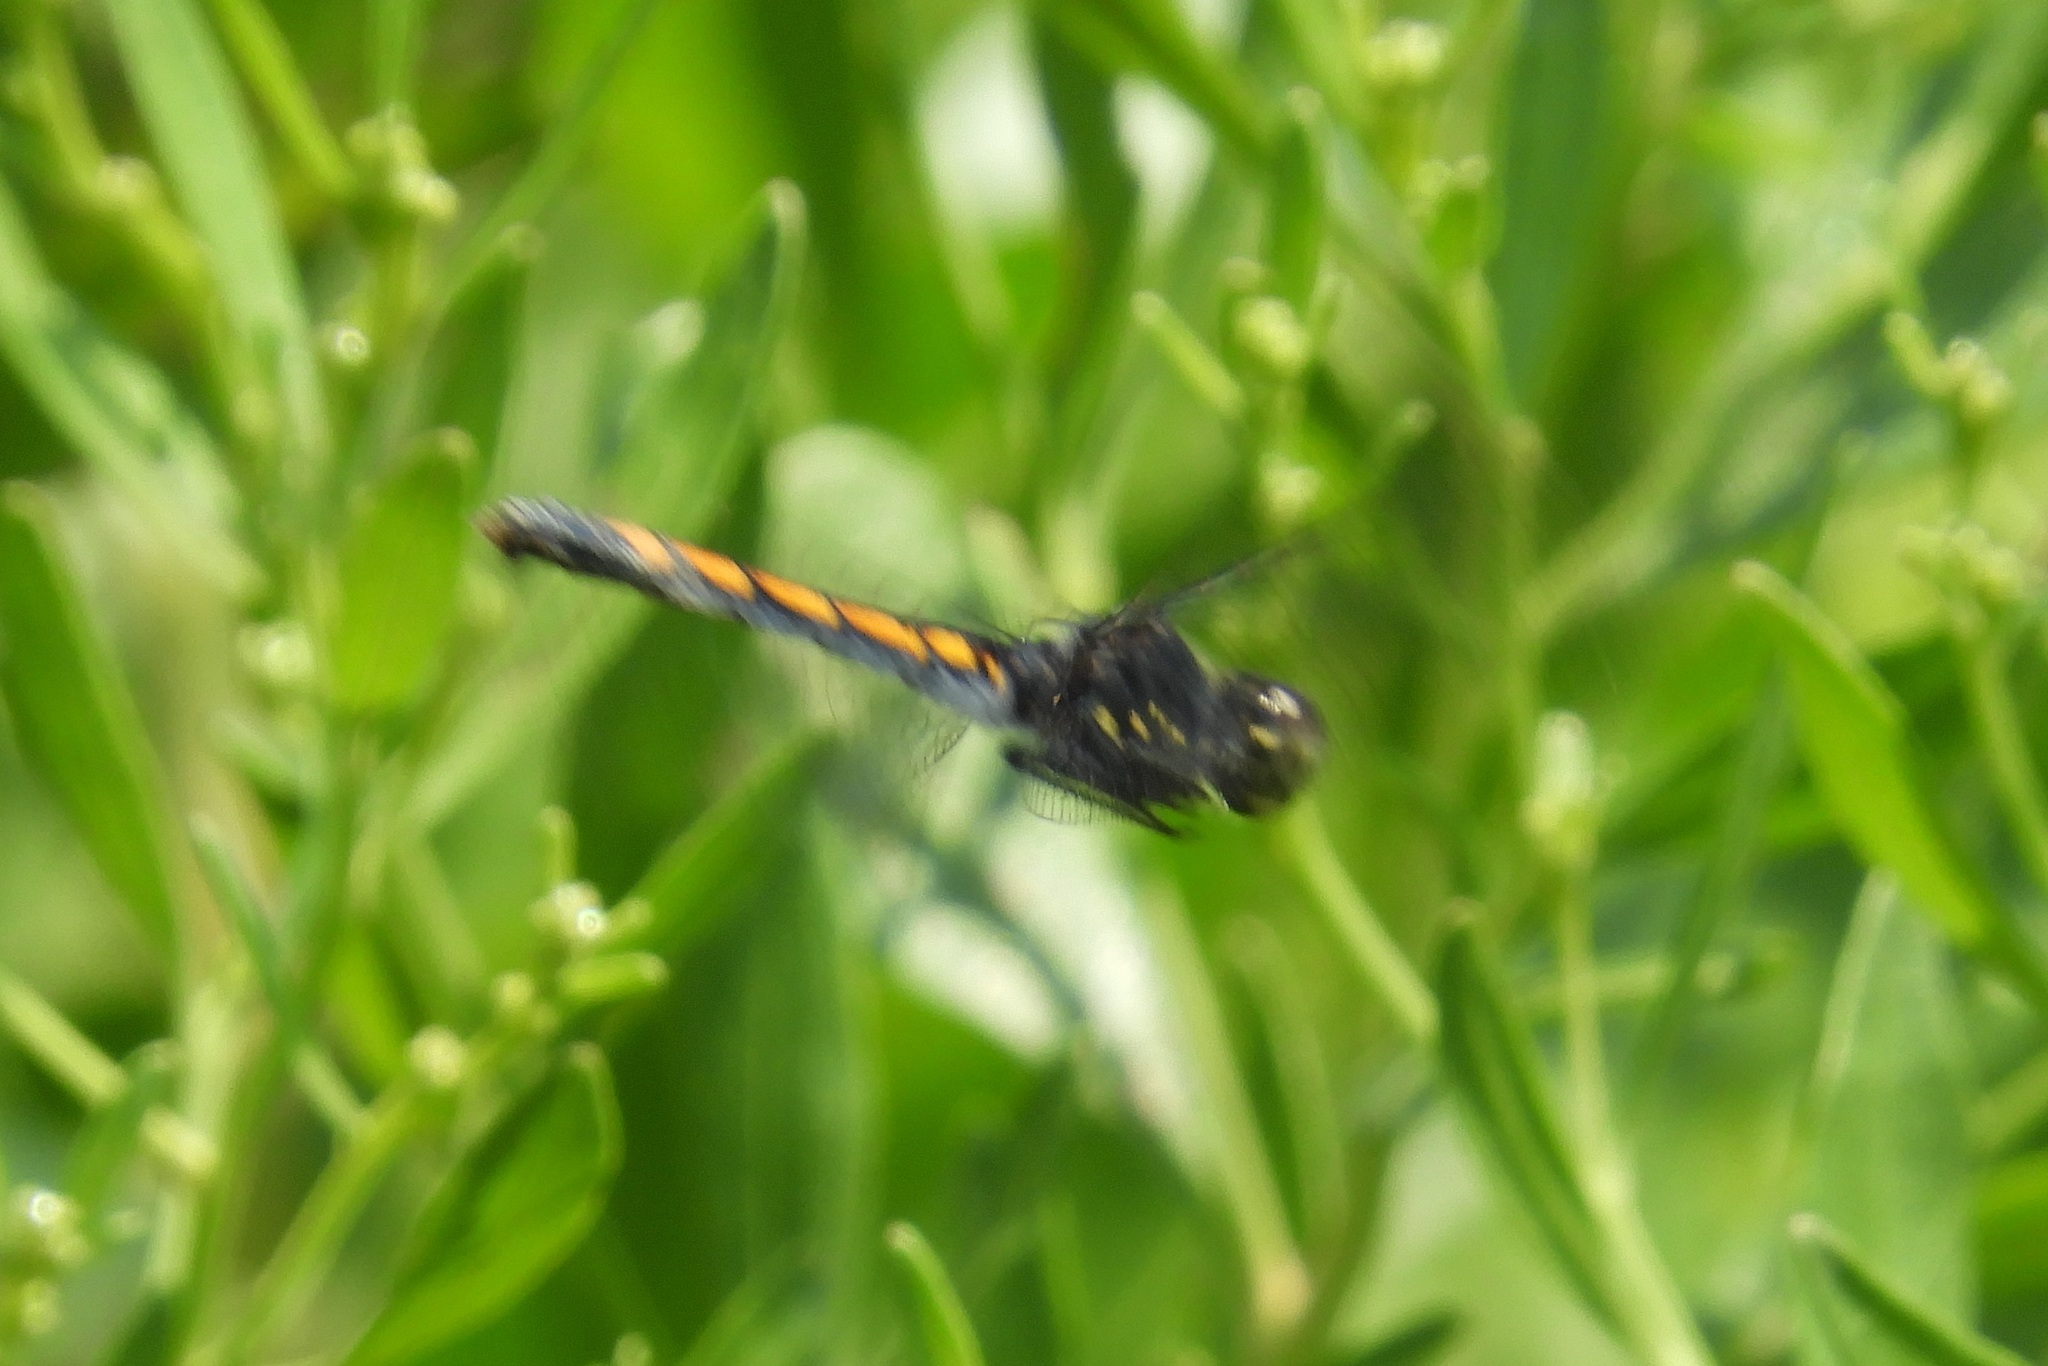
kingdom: Animalia
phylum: Arthropoda
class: Insecta
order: Odonata
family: Libellulidae
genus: Erythrodiplax
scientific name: Erythrodiplax berenice
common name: Seaside dragonlet
